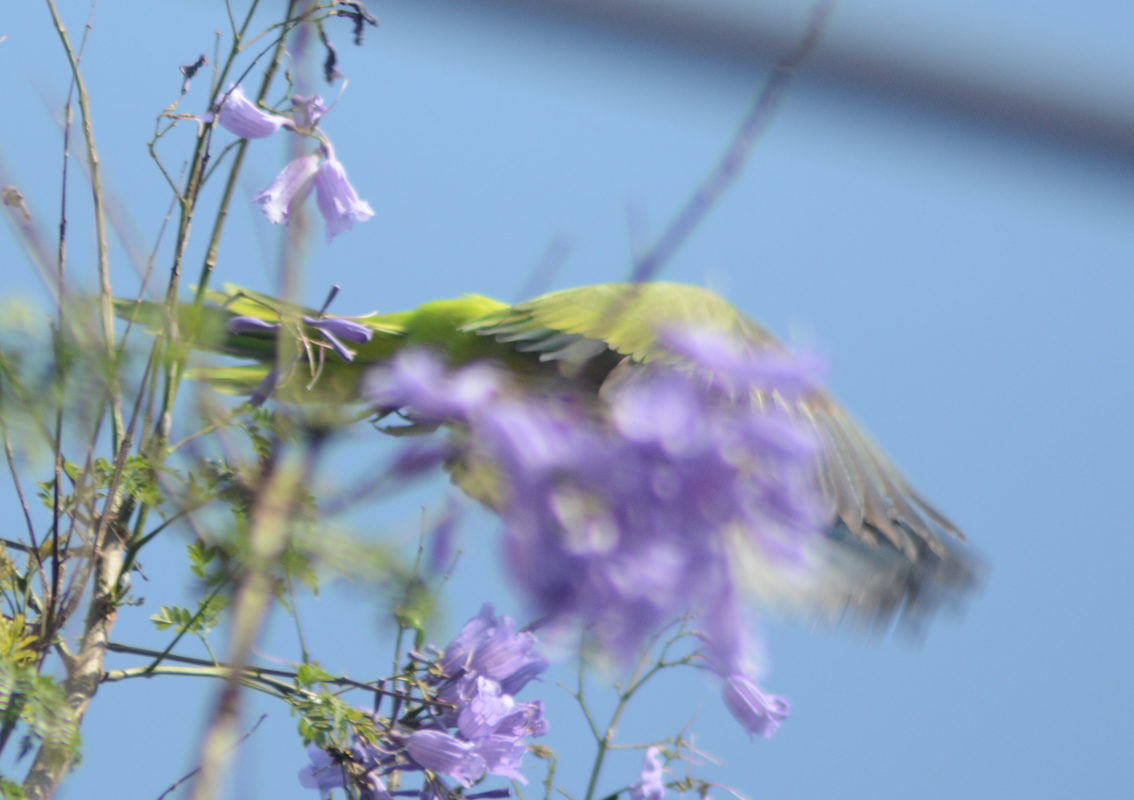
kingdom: Animalia
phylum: Chordata
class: Aves
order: Psittaciformes
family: Psittacidae
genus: Myiopsitta
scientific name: Myiopsitta monachus
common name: Monk parakeet
